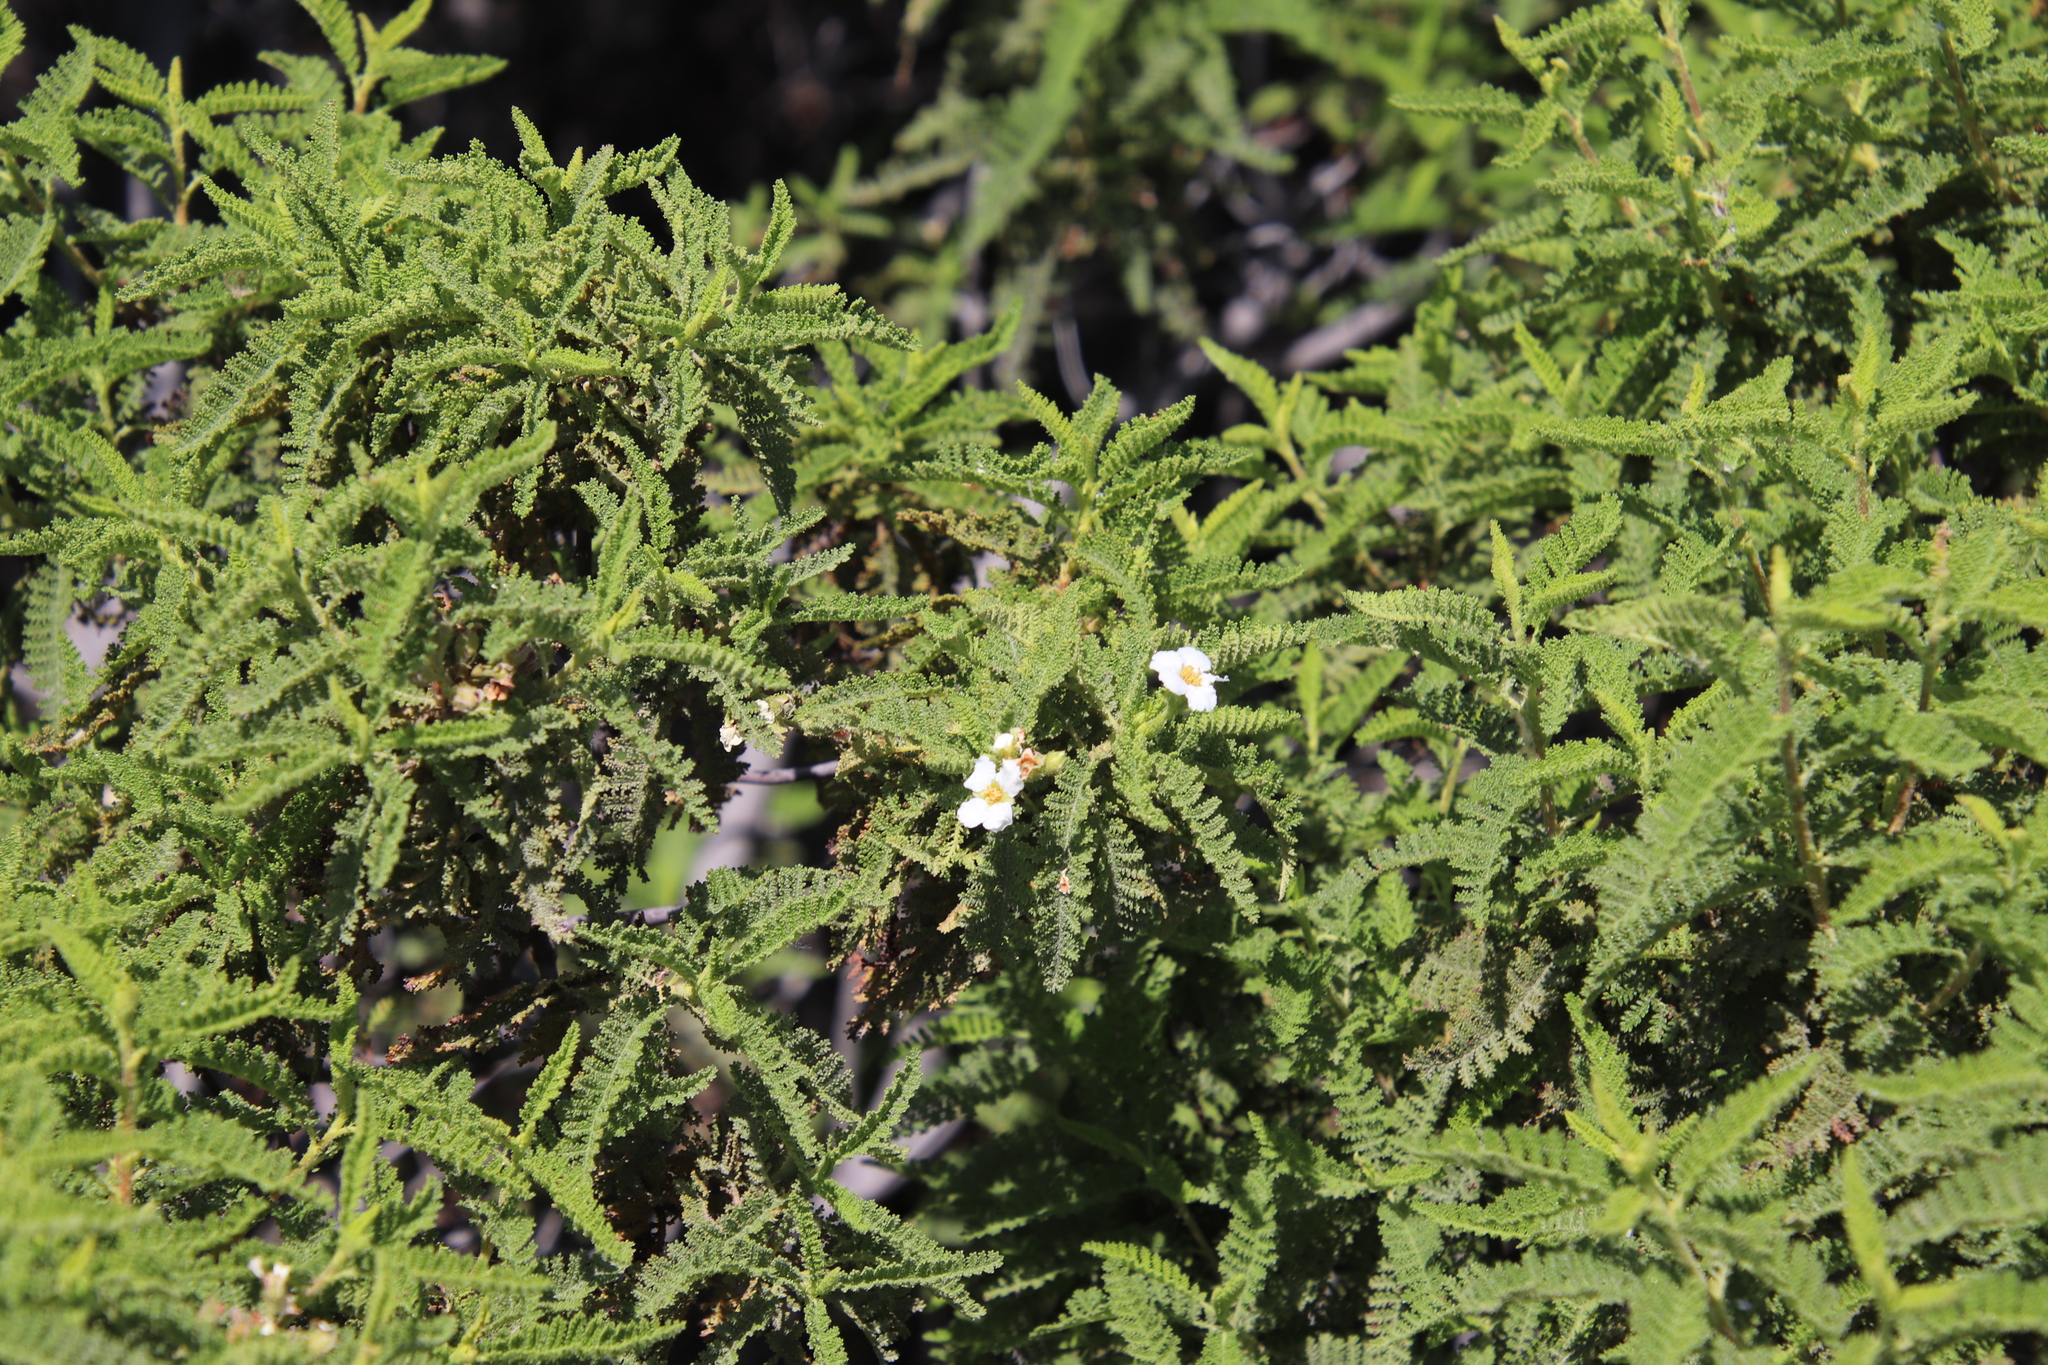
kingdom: Plantae
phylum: Tracheophyta
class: Magnoliopsida
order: Rosales
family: Rosaceae
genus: Chamaebatia
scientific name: Chamaebatia australis
